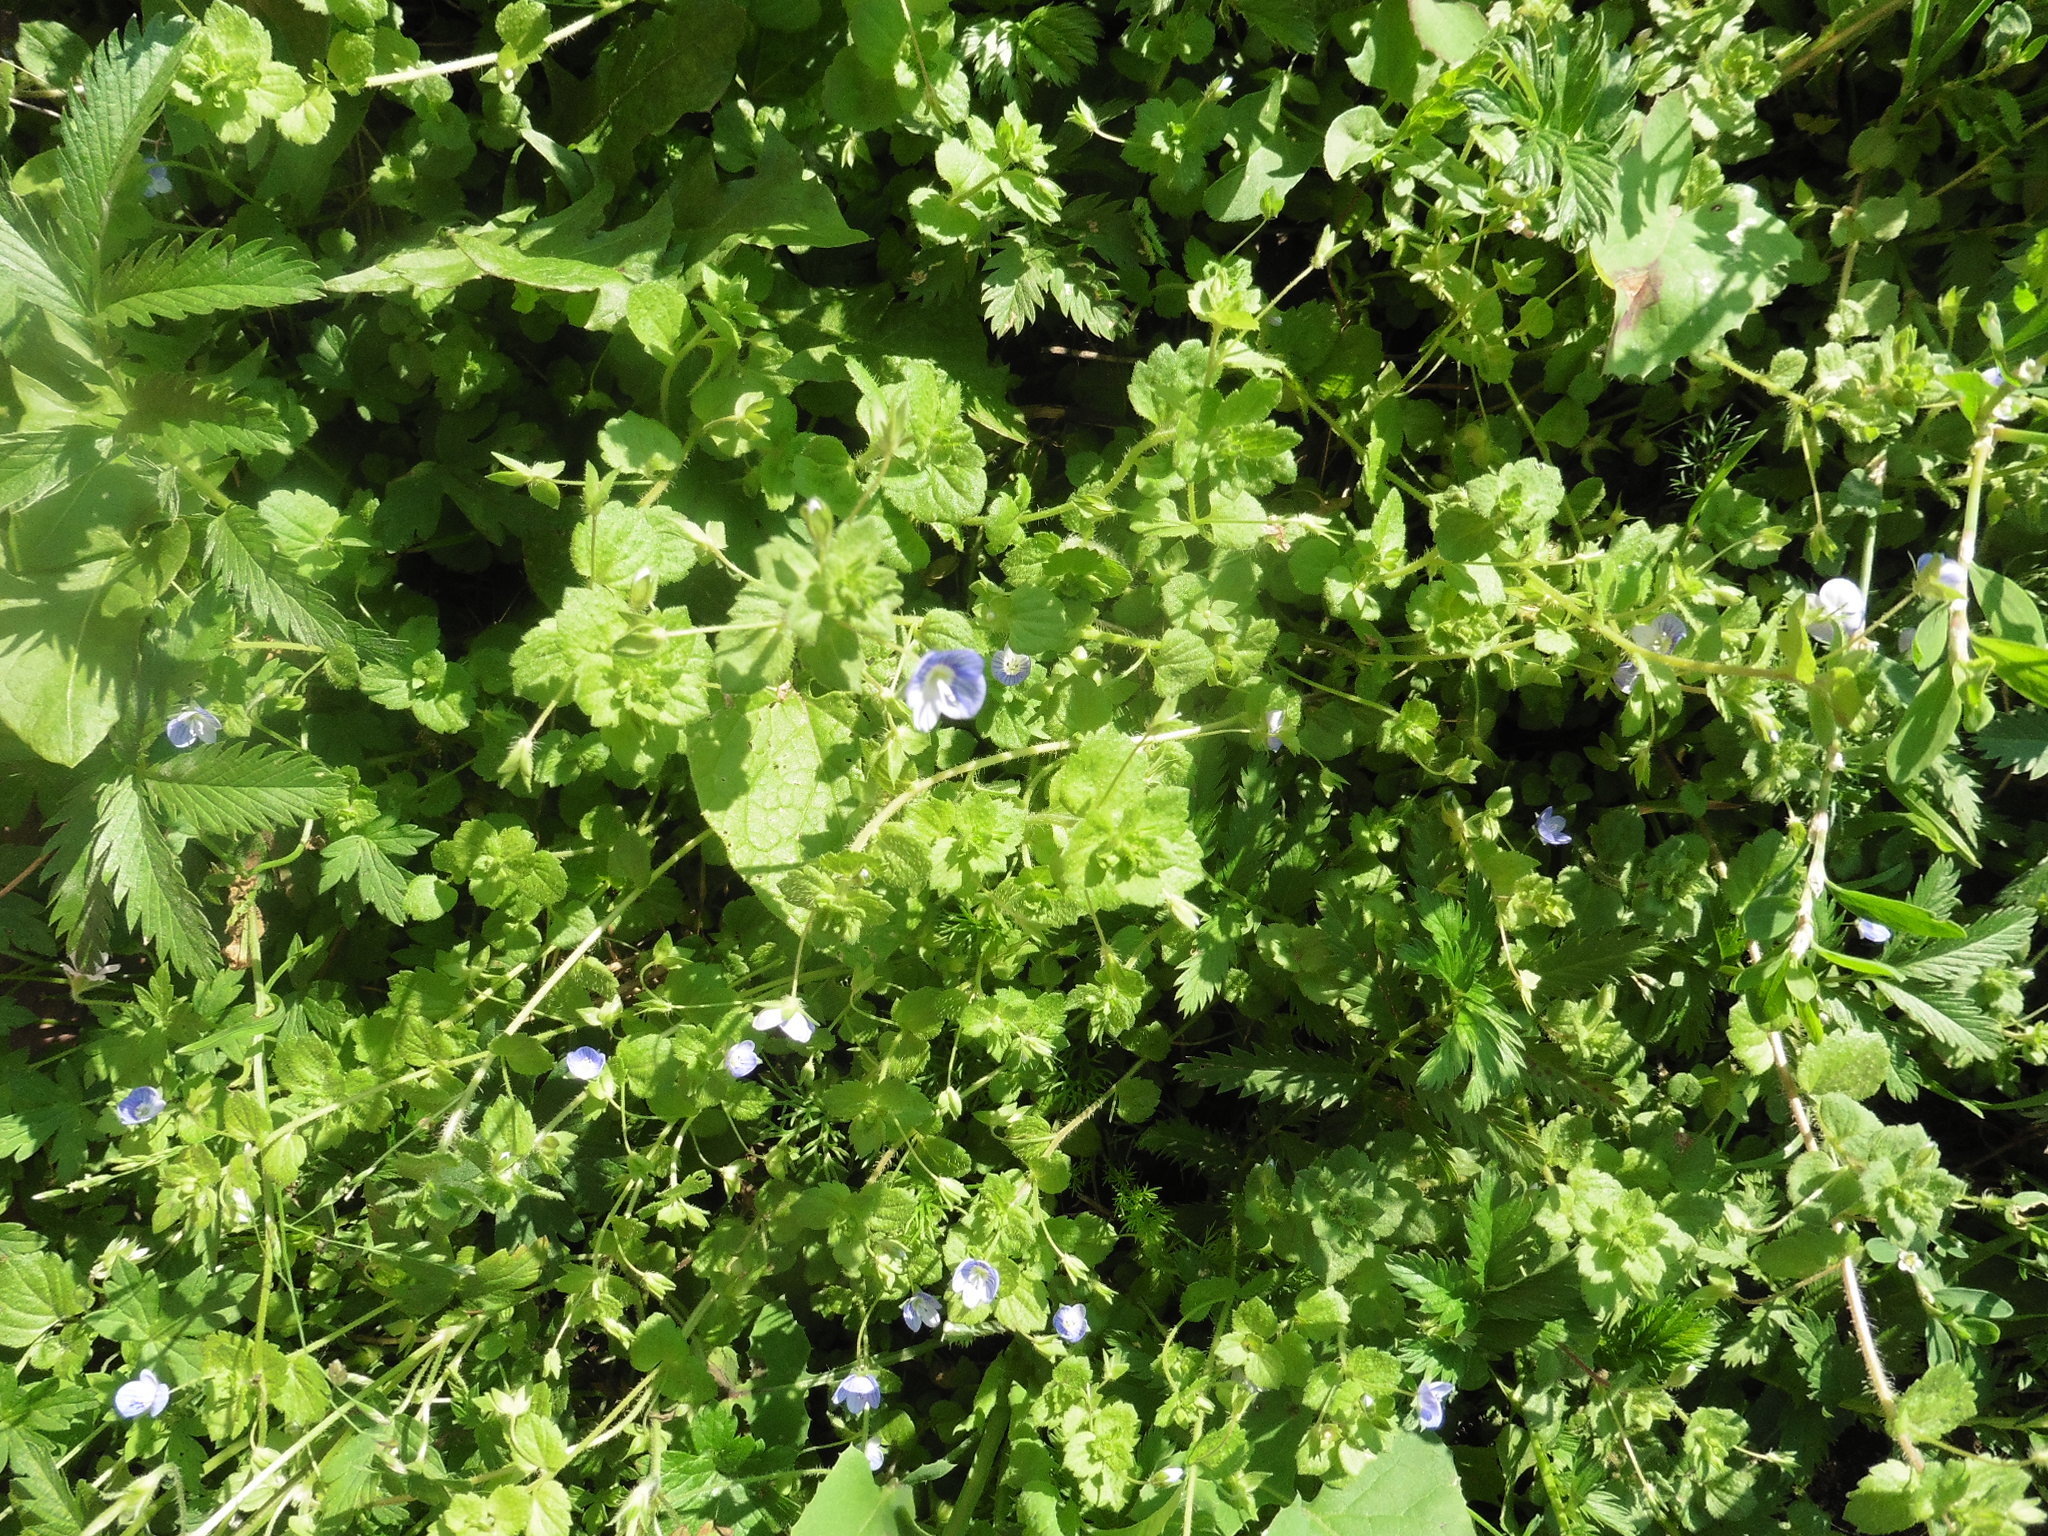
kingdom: Plantae
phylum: Tracheophyta
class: Magnoliopsida
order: Lamiales
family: Plantaginaceae
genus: Veronica
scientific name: Veronica persica
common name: Common field-speedwell
